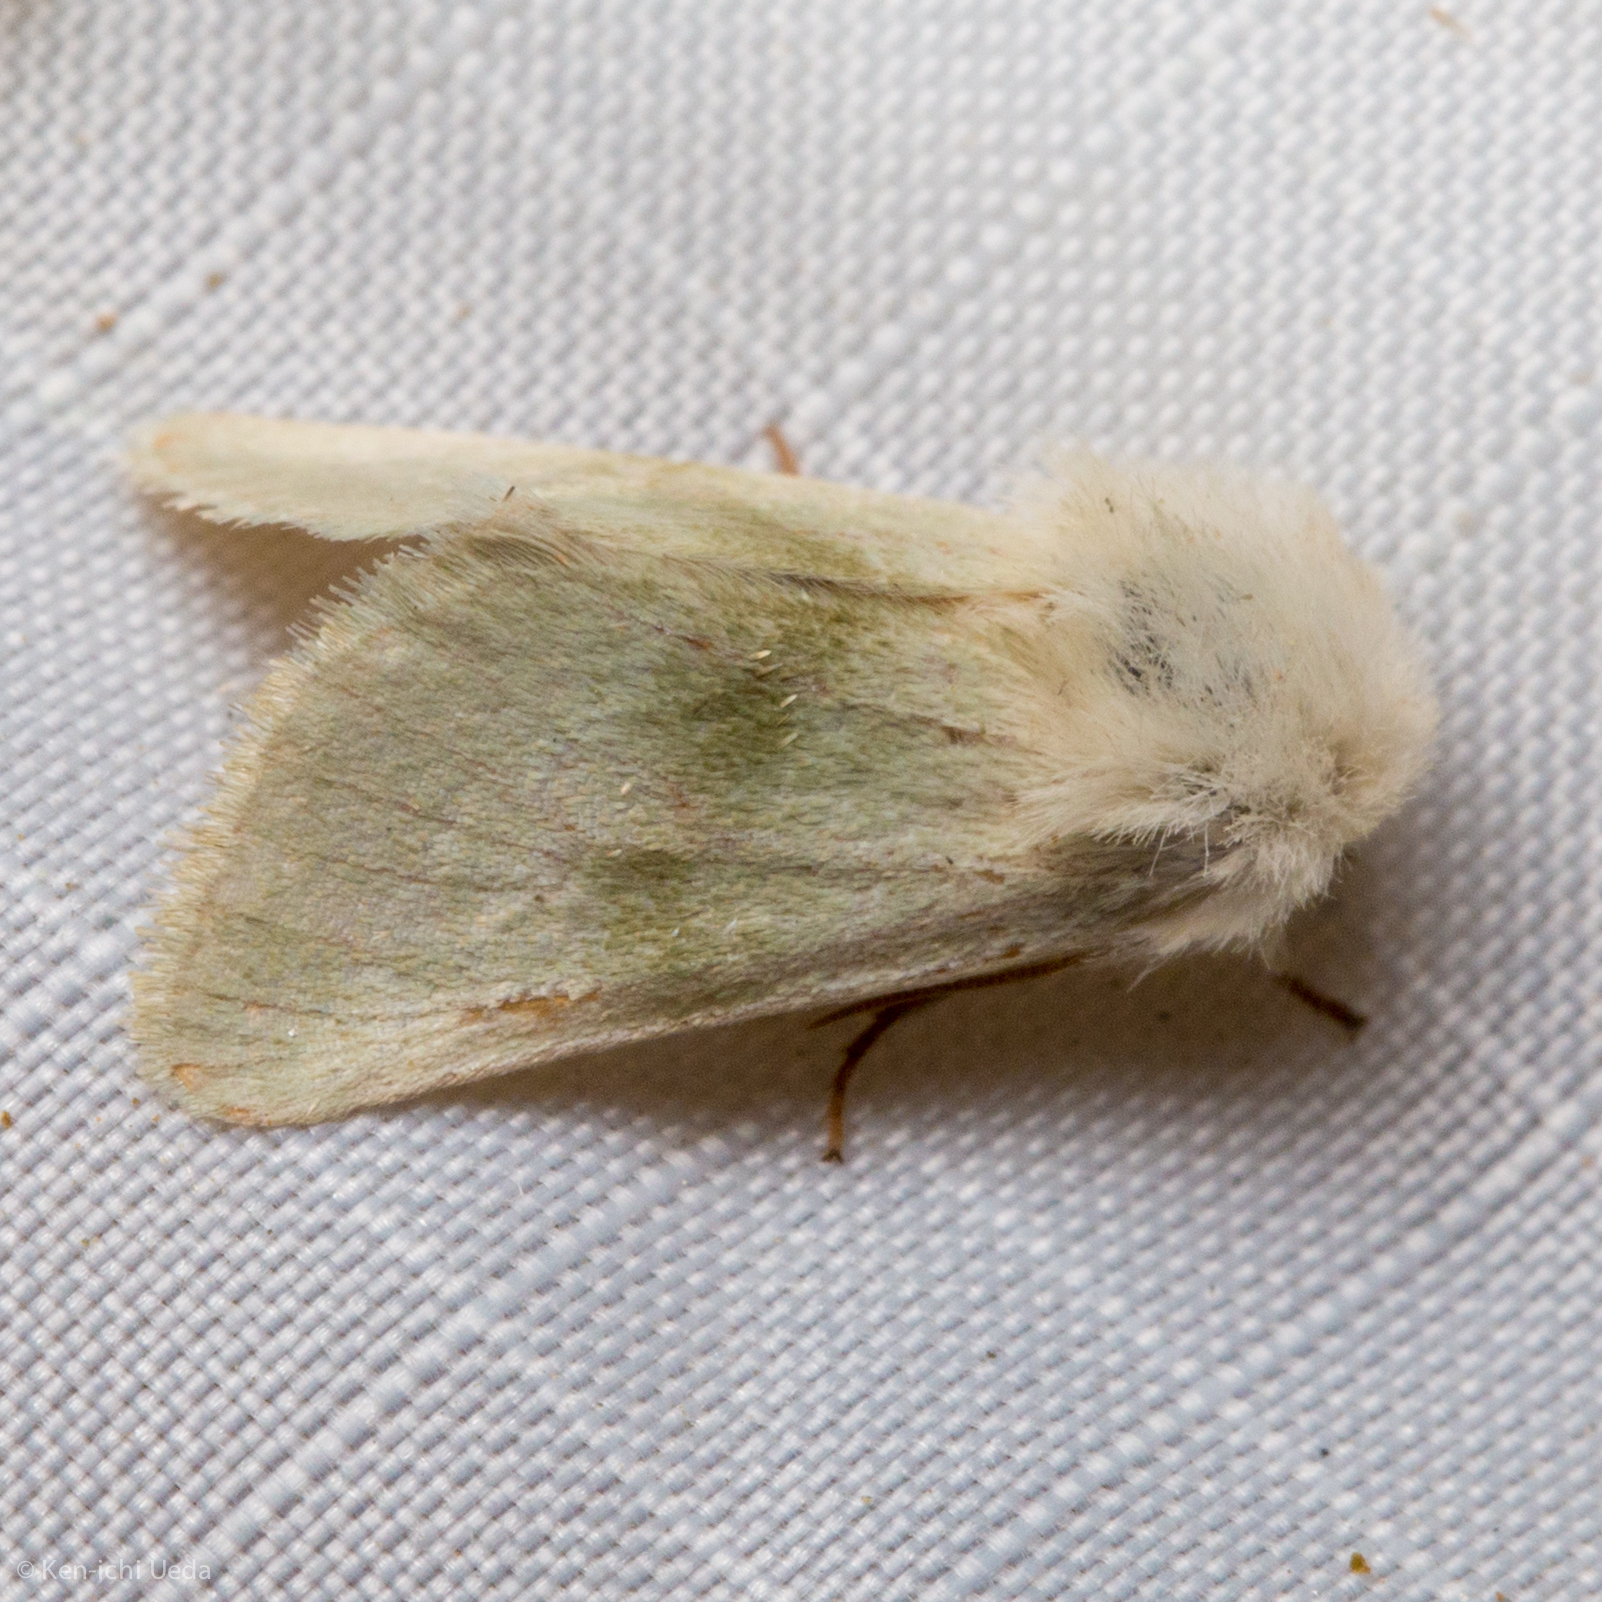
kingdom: Animalia
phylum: Arthropoda
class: Insecta
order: Lepidoptera
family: Noctuidae
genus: Nocloa
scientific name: Nocloa pallens
